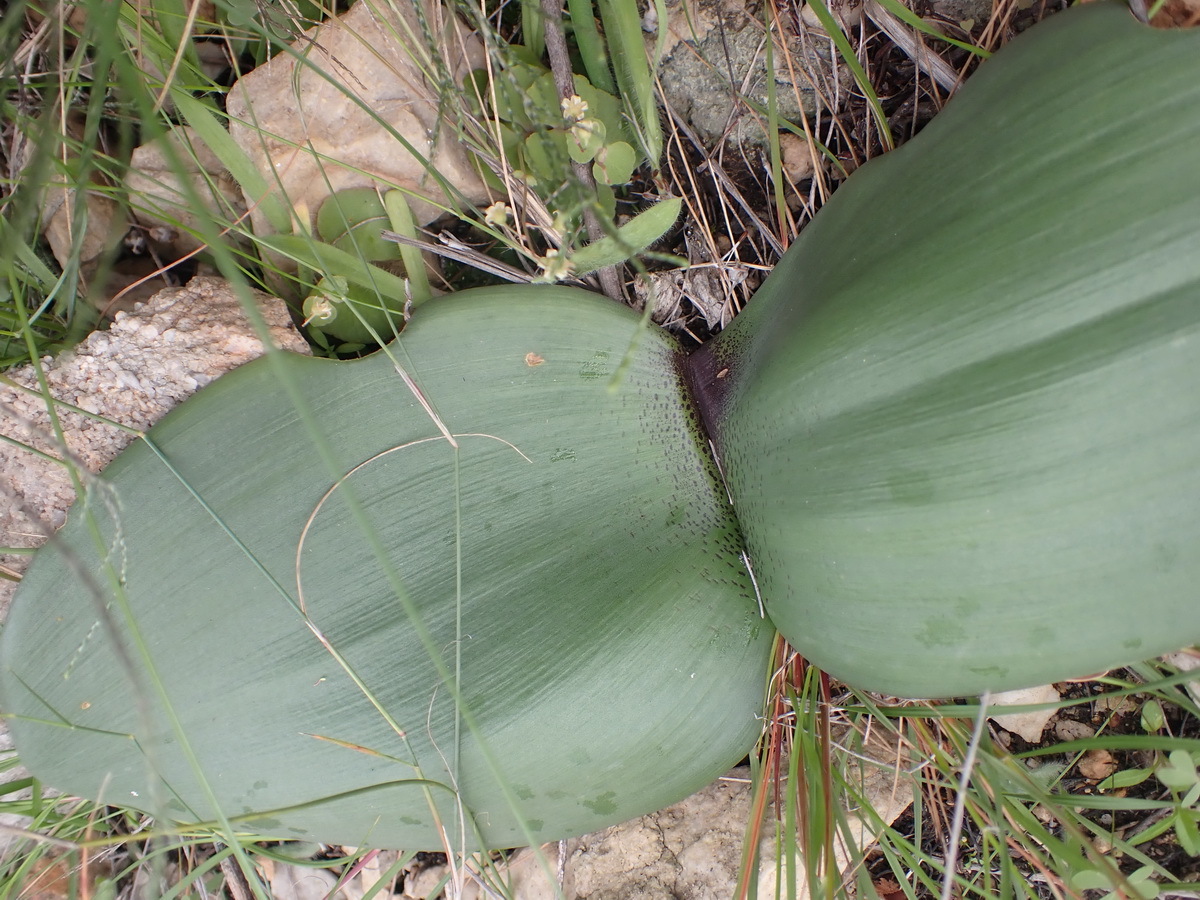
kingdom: Plantae
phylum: Tracheophyta
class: Liliopsida
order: Asparagales
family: Amaryllidaceae
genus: Haemanthus
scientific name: Haemanthus coccineus
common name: Cape-tulip
